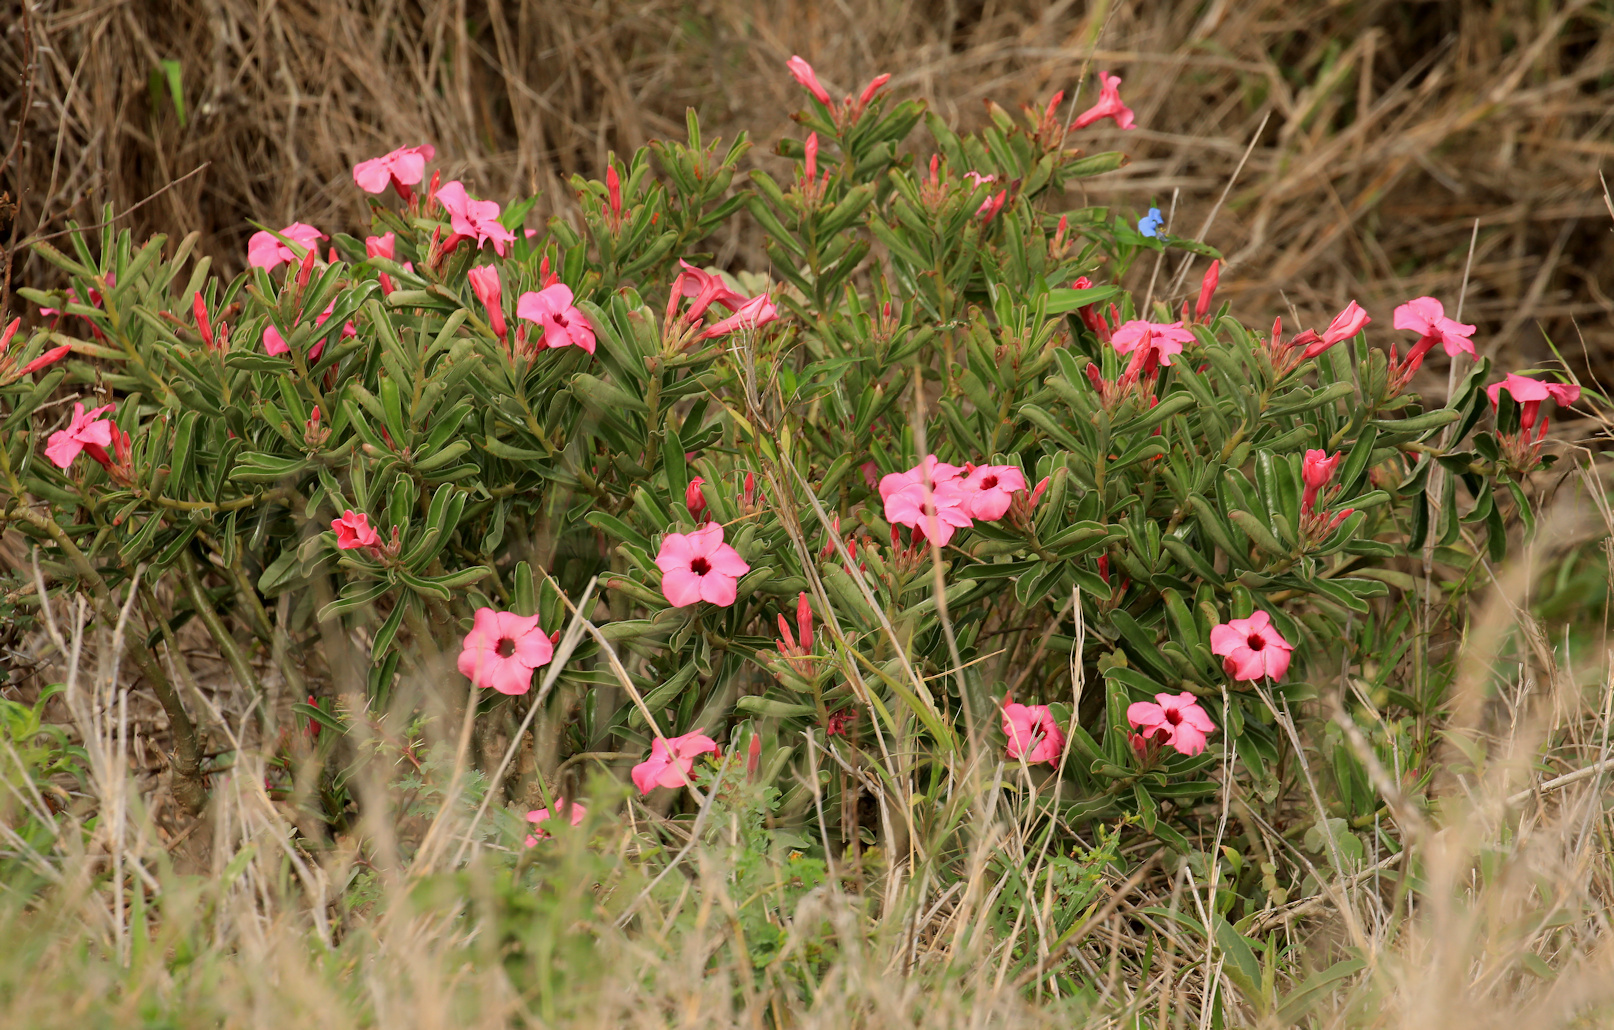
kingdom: Plantae
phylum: Tracheophyta
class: Magnoliopsida
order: Gentianales
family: Apocynaceae
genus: Adenium
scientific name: Adenium obesum
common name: Desert-rose
